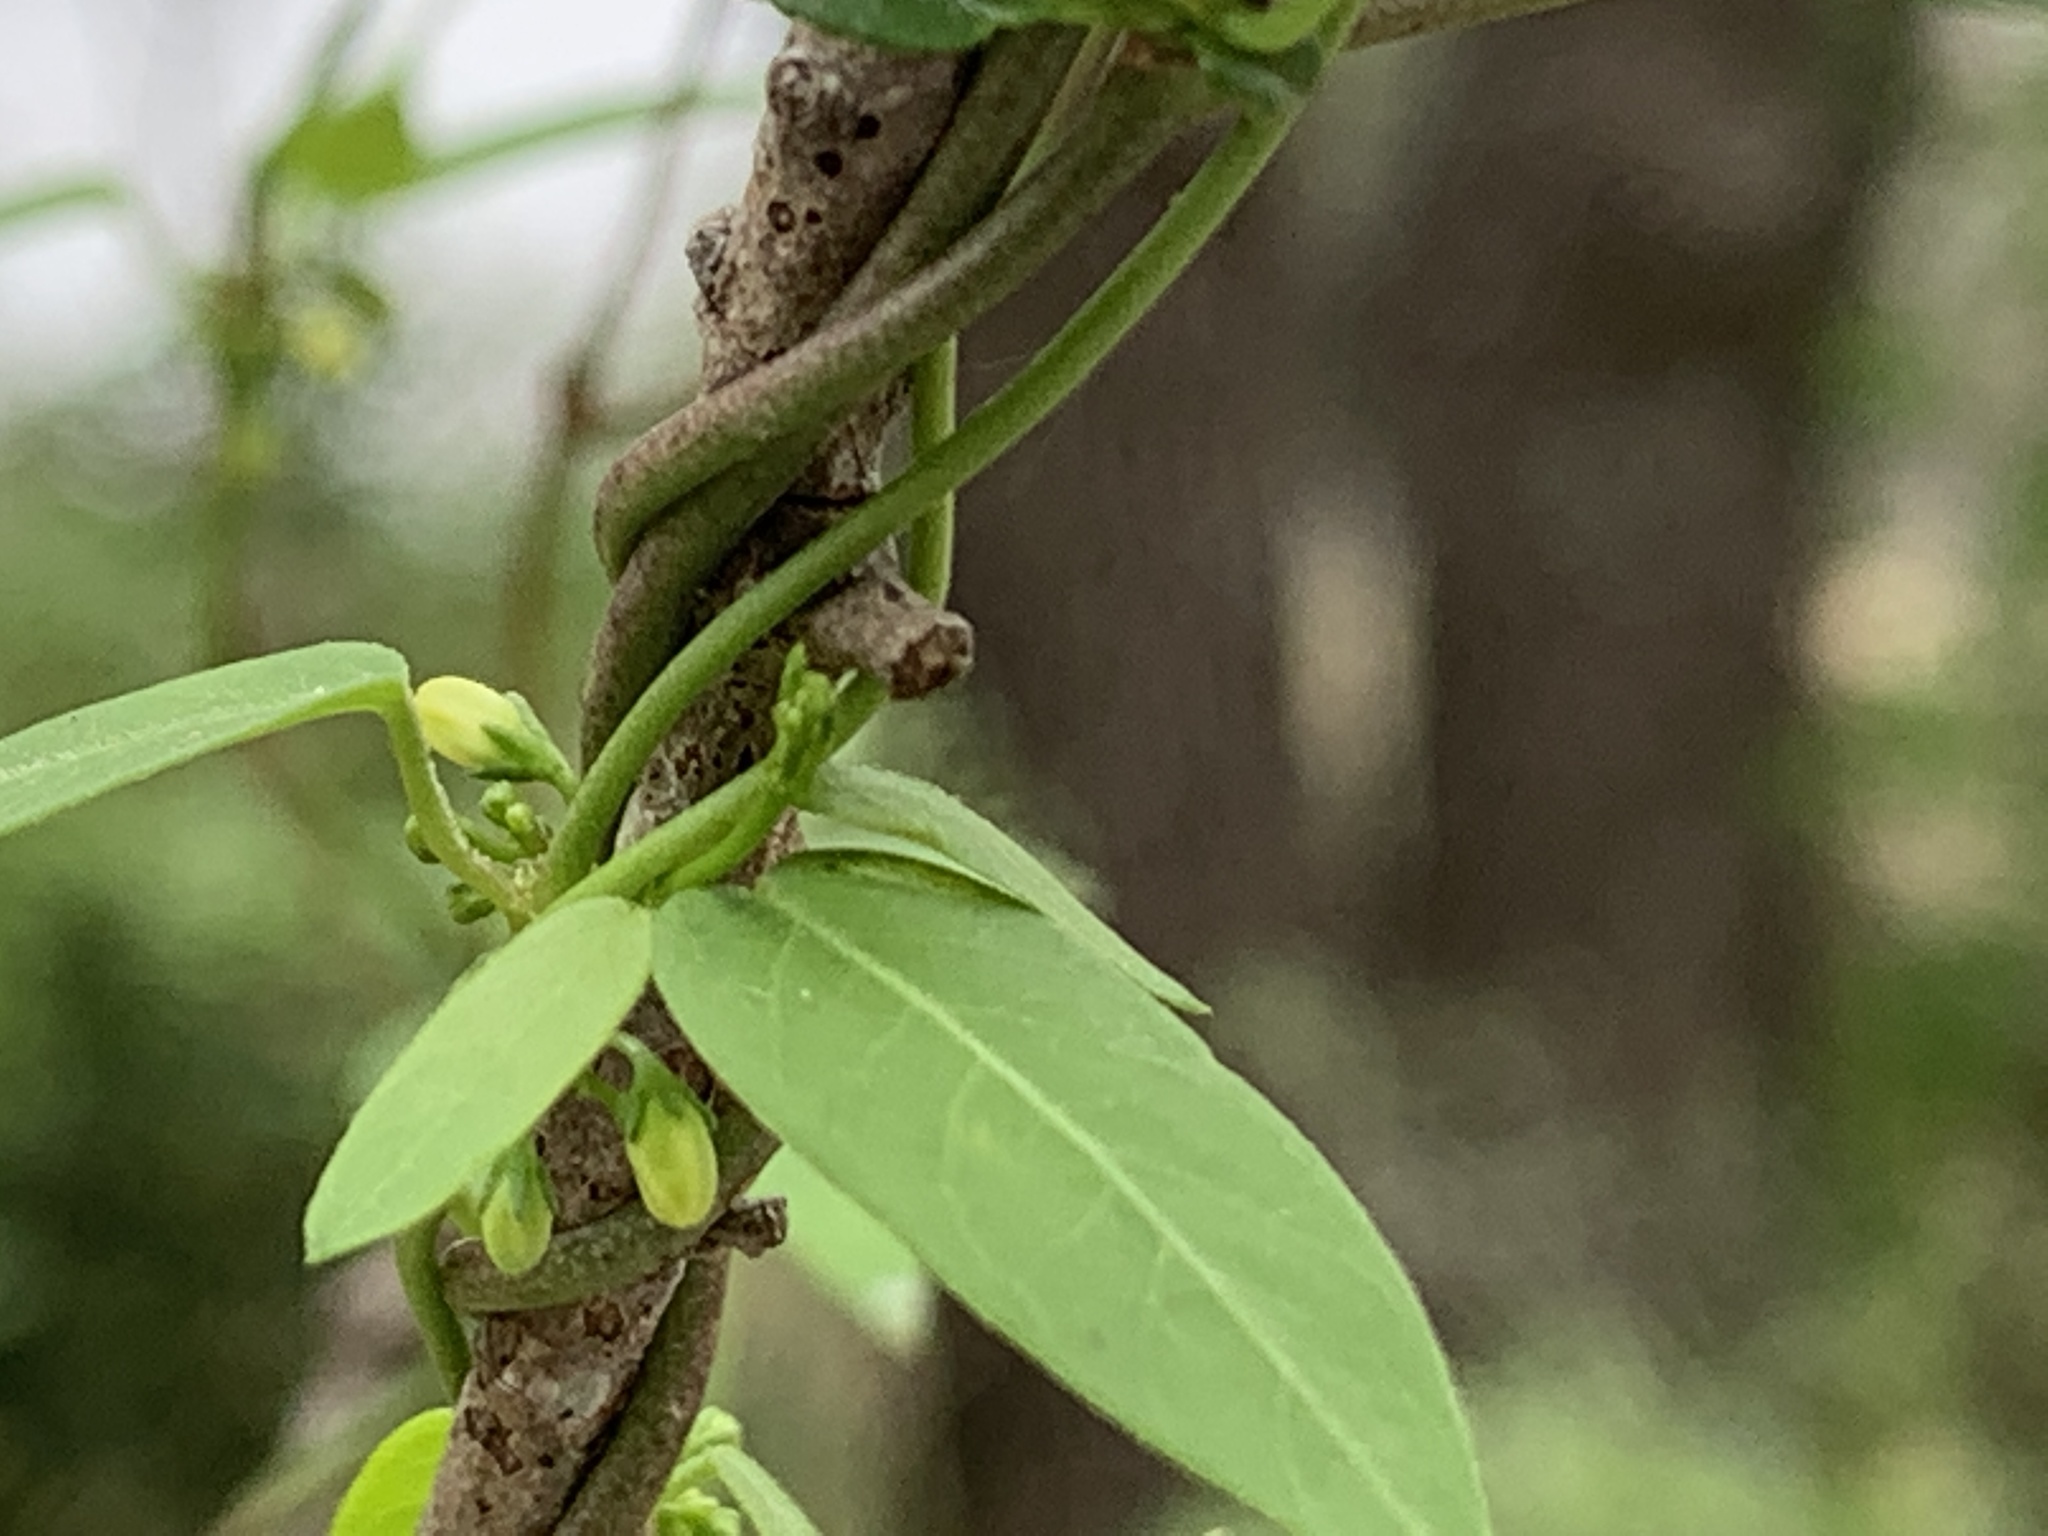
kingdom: Plantae
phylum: Tracheophyta
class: Magnoliopsida
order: Gentianales
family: Apocynaceae
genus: Metastelma
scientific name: Metastelma palmeri
